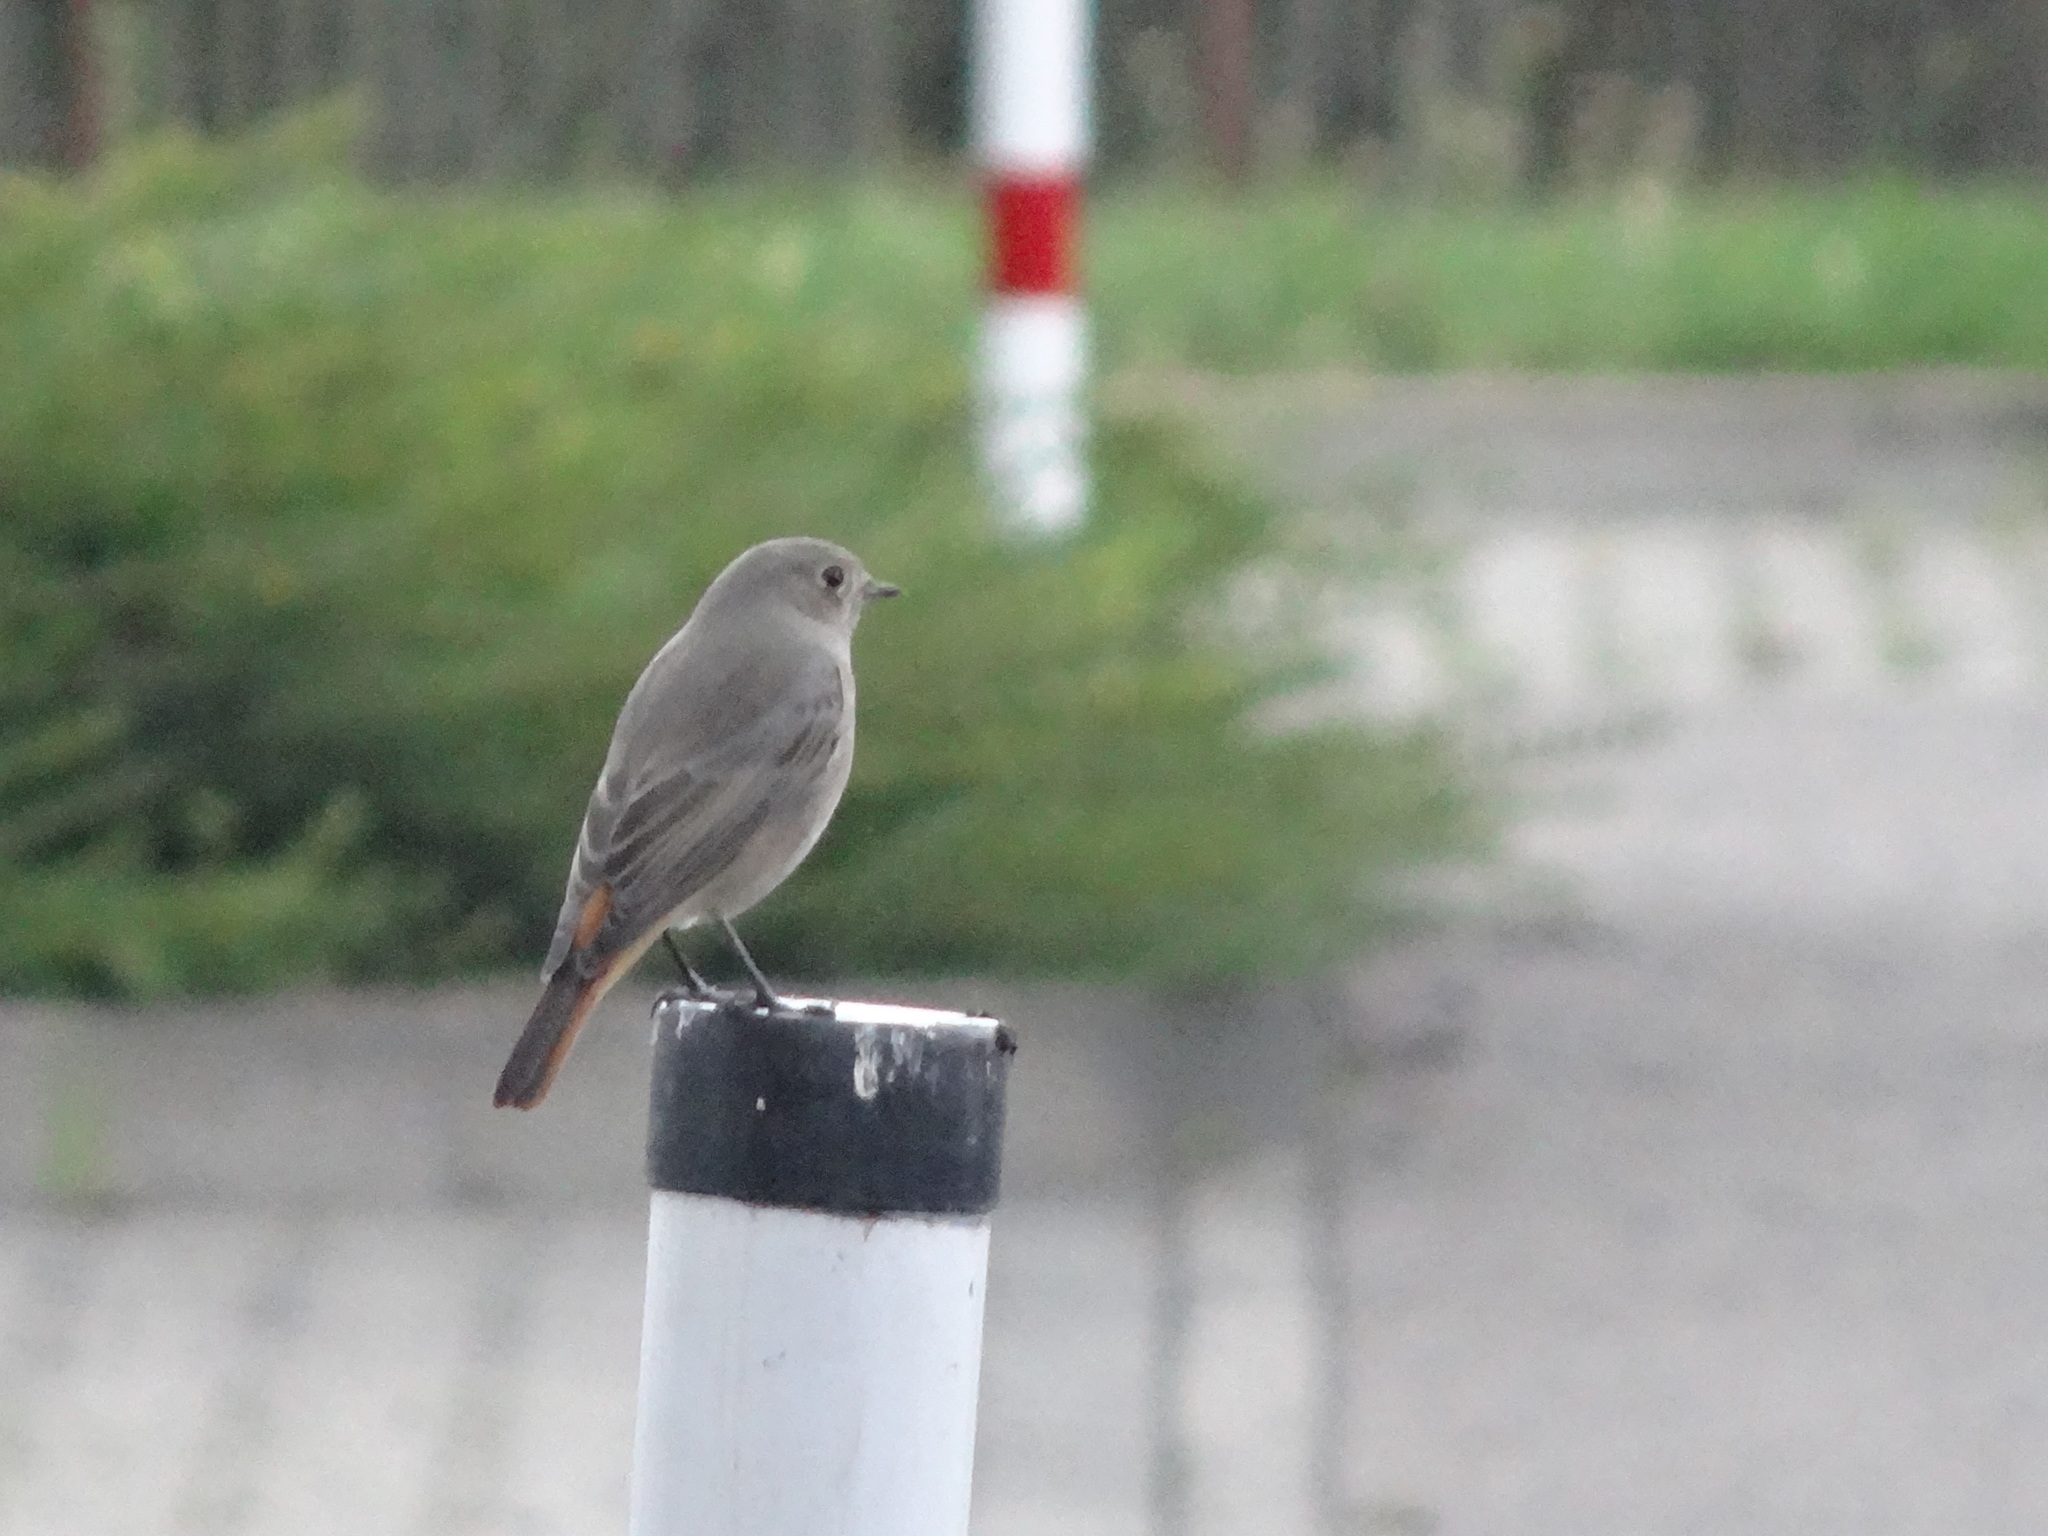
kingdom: Animalia
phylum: Chordata
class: Aves
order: Passeriformes
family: Muscicapidae
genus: Phoenicurus
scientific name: Phoenicurus ochruros
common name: Black redstart
